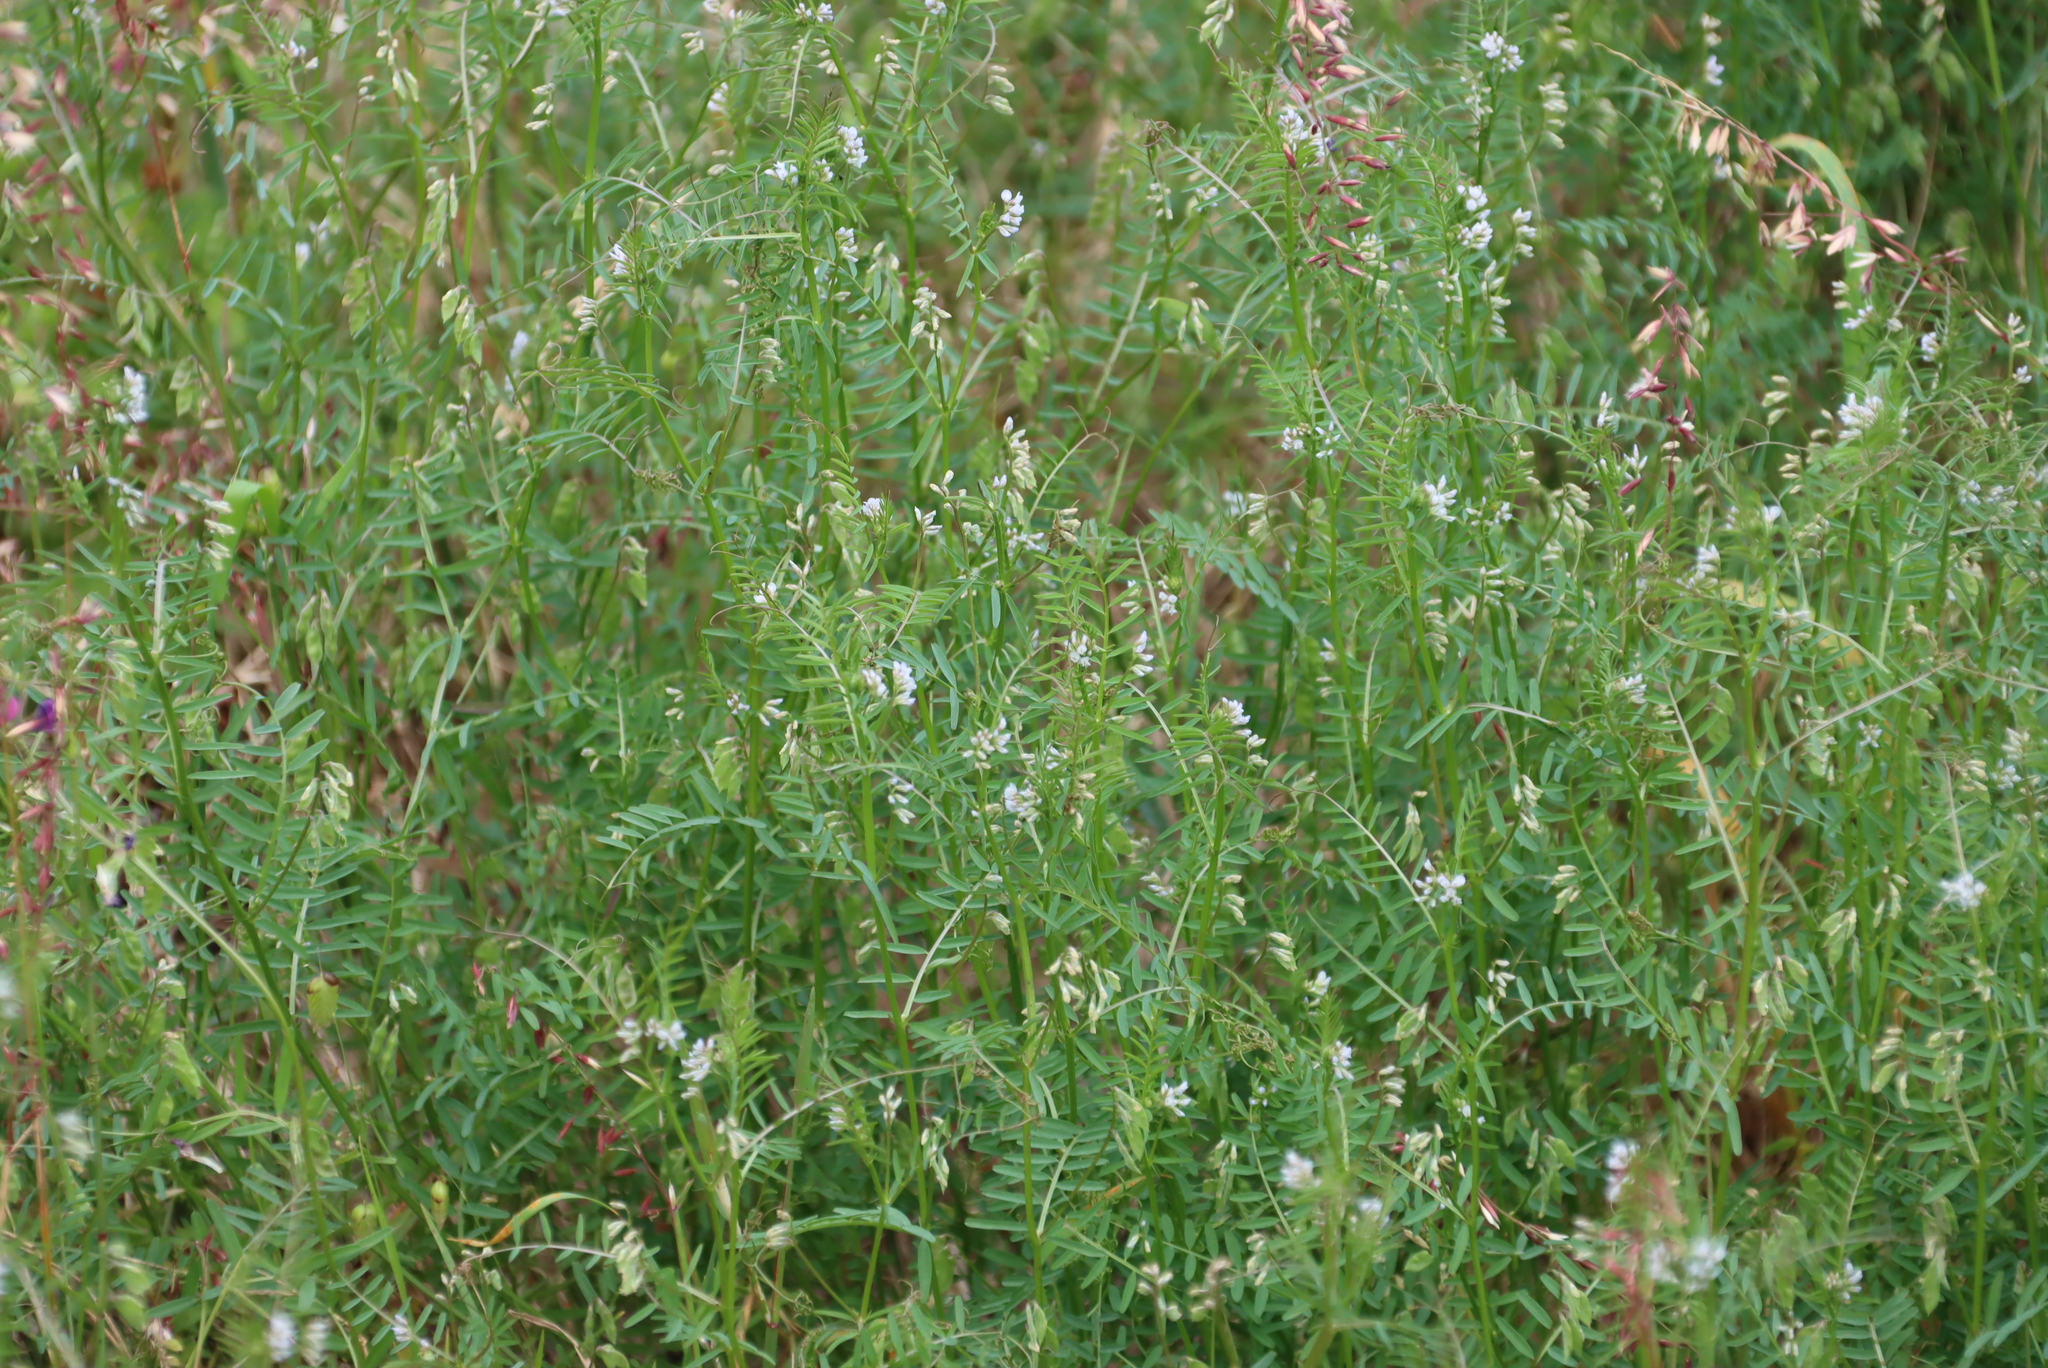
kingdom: Plantae
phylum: Tracheophyta
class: Magnoliopsida
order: Fabales
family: Fabaceae
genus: Vicia
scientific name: Vicia hirsuta
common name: Tiny vetch
